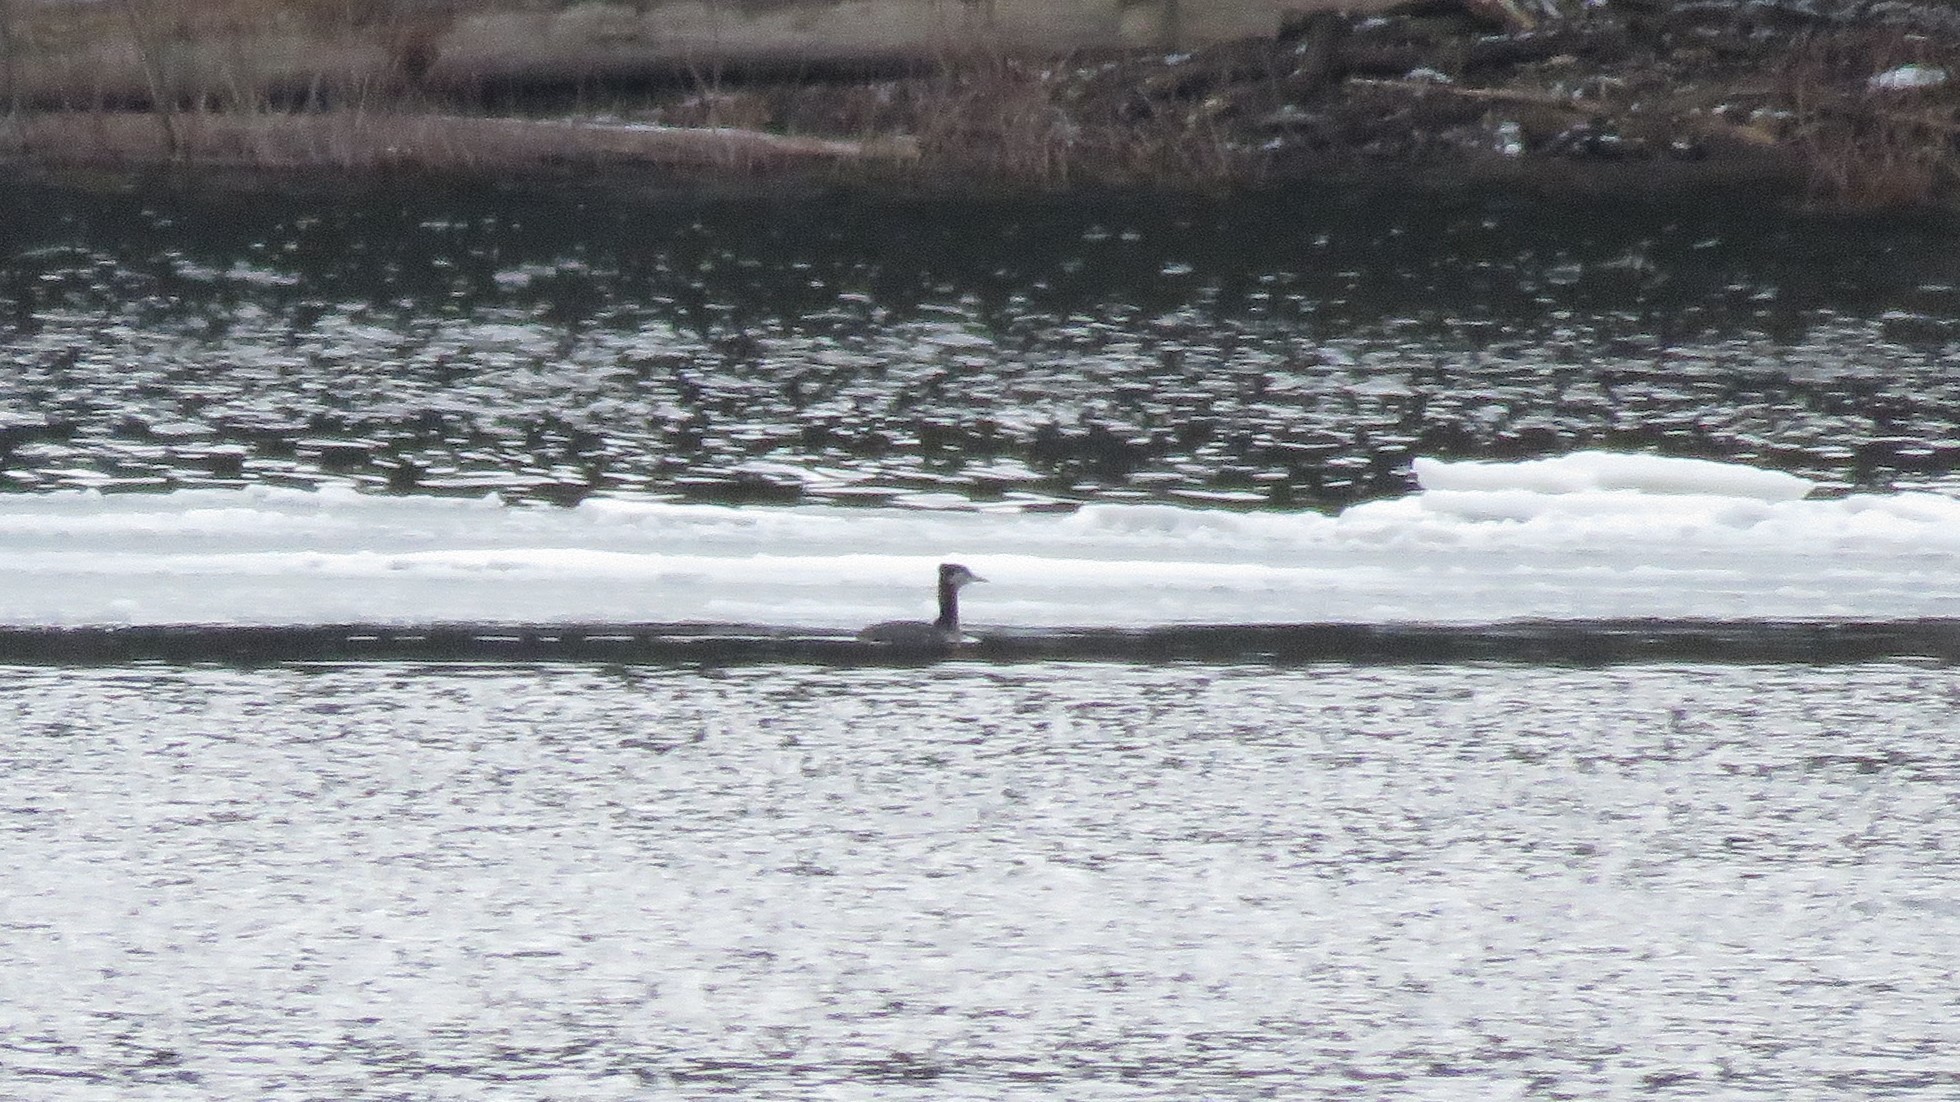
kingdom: Animalia
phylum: Chordata
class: Aves
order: Podicipediformes
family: Podicipedidae
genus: Podiceps
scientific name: Podiceps grisegena
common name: Red-necked grebe
